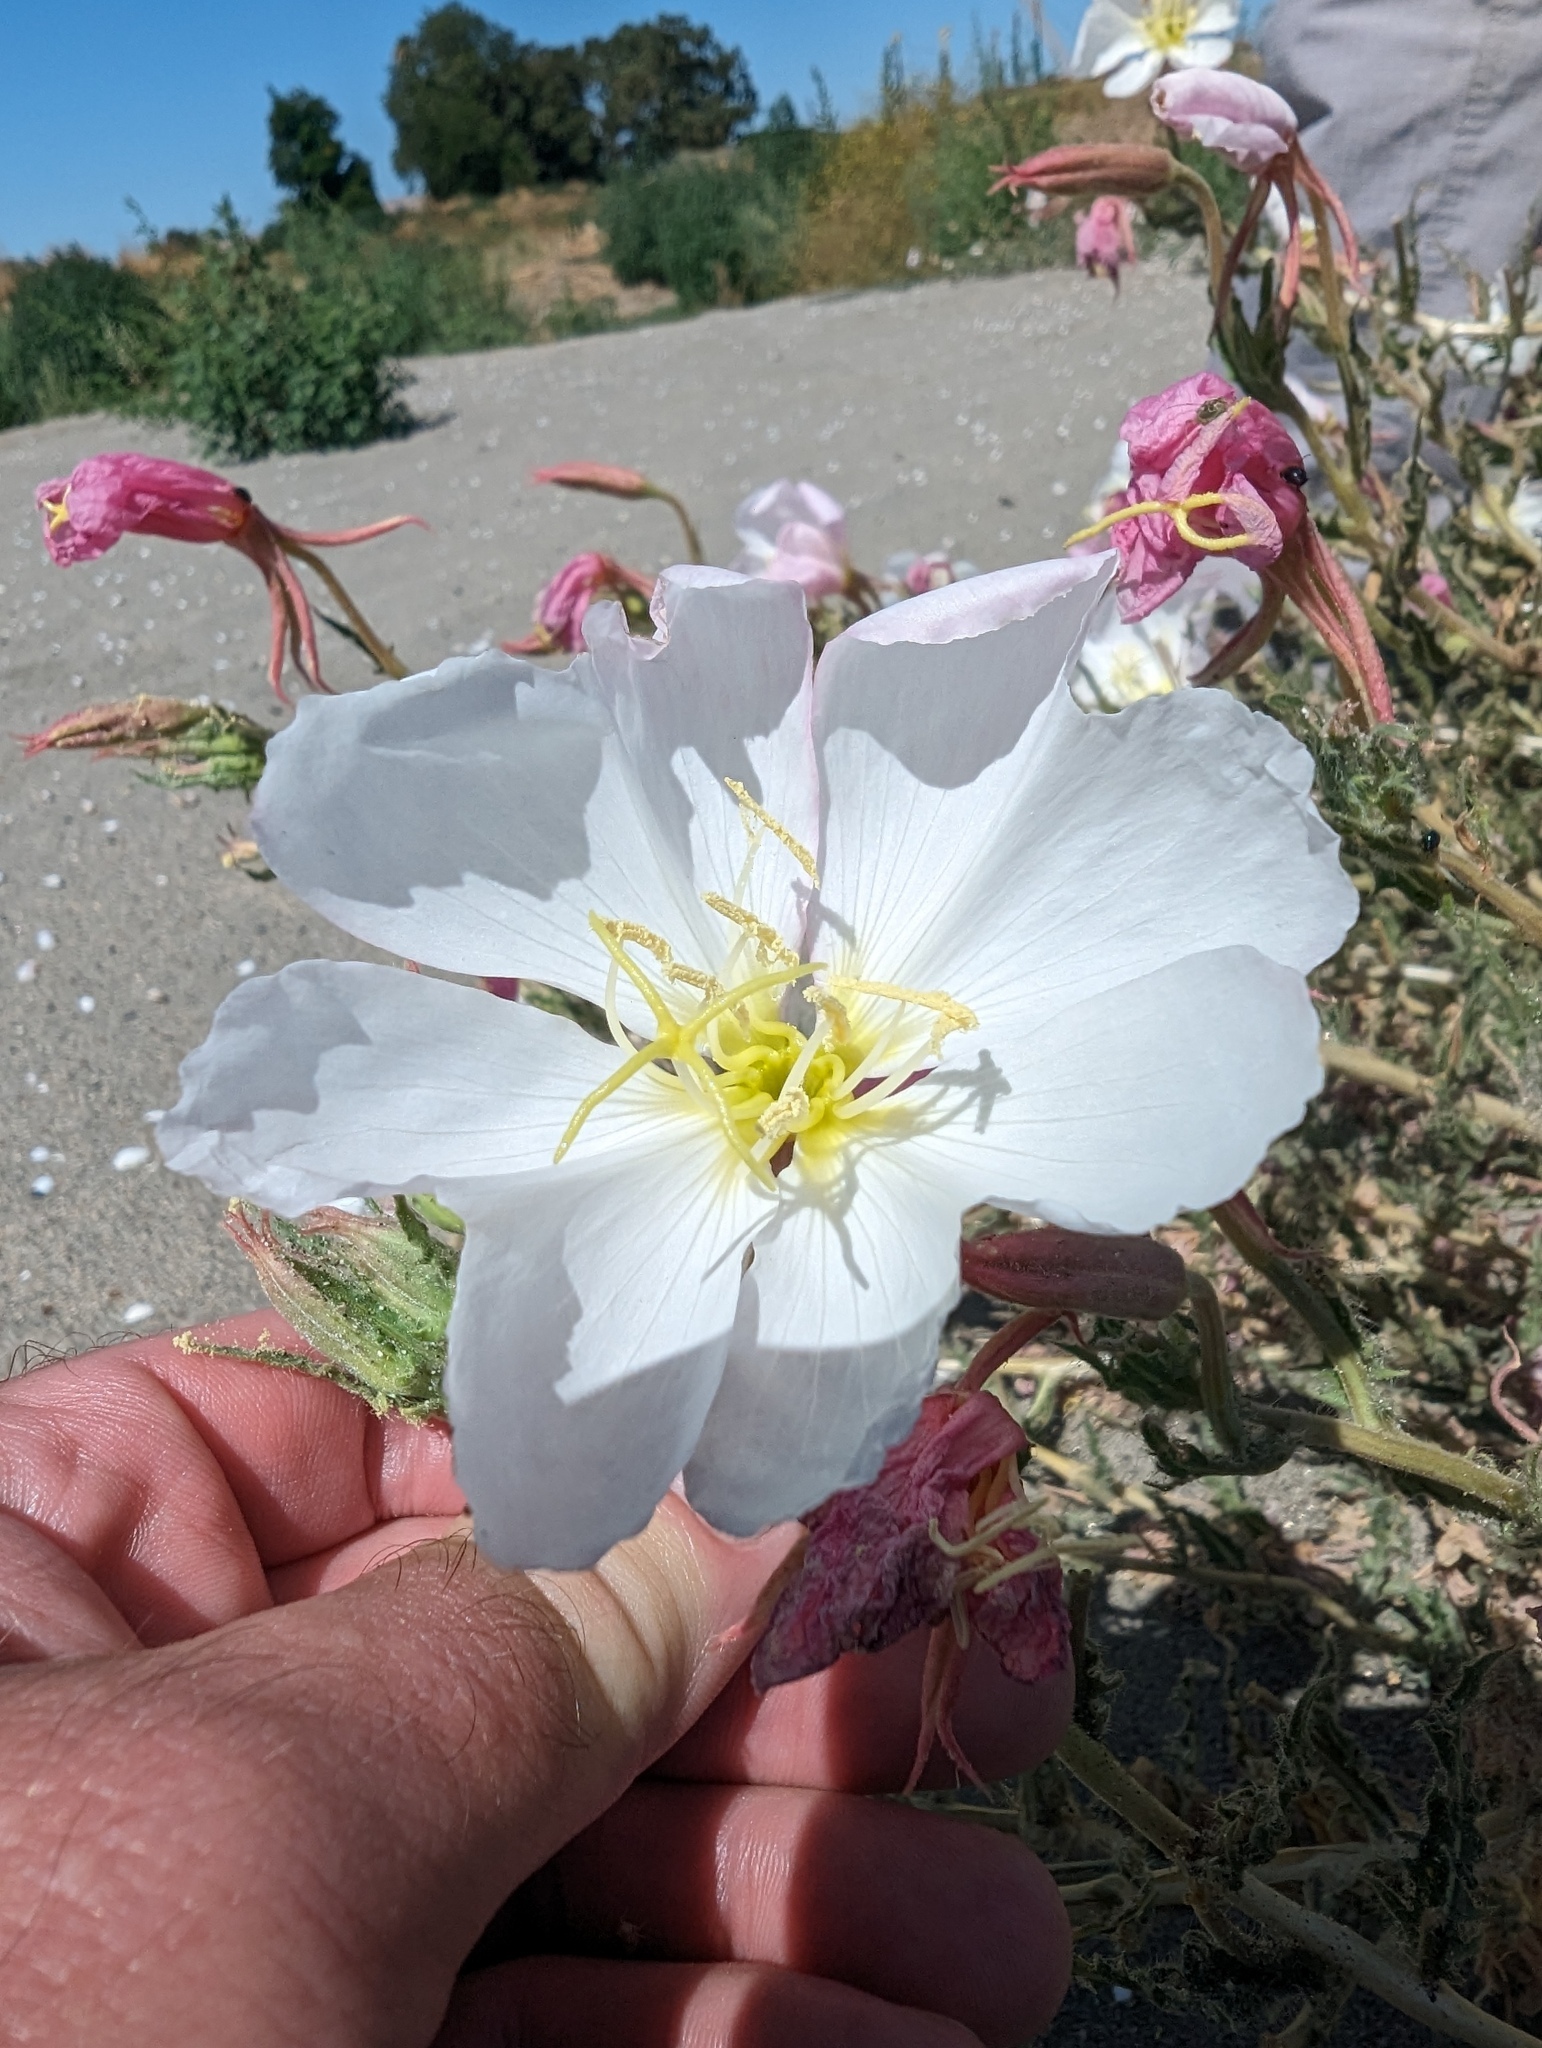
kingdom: Plantae
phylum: Tracheophyta
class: Magnoliopsida
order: Myrtales
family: Onagraceae
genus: Oenothera
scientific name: Oenothera deltoides
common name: Basket evening-primrose
